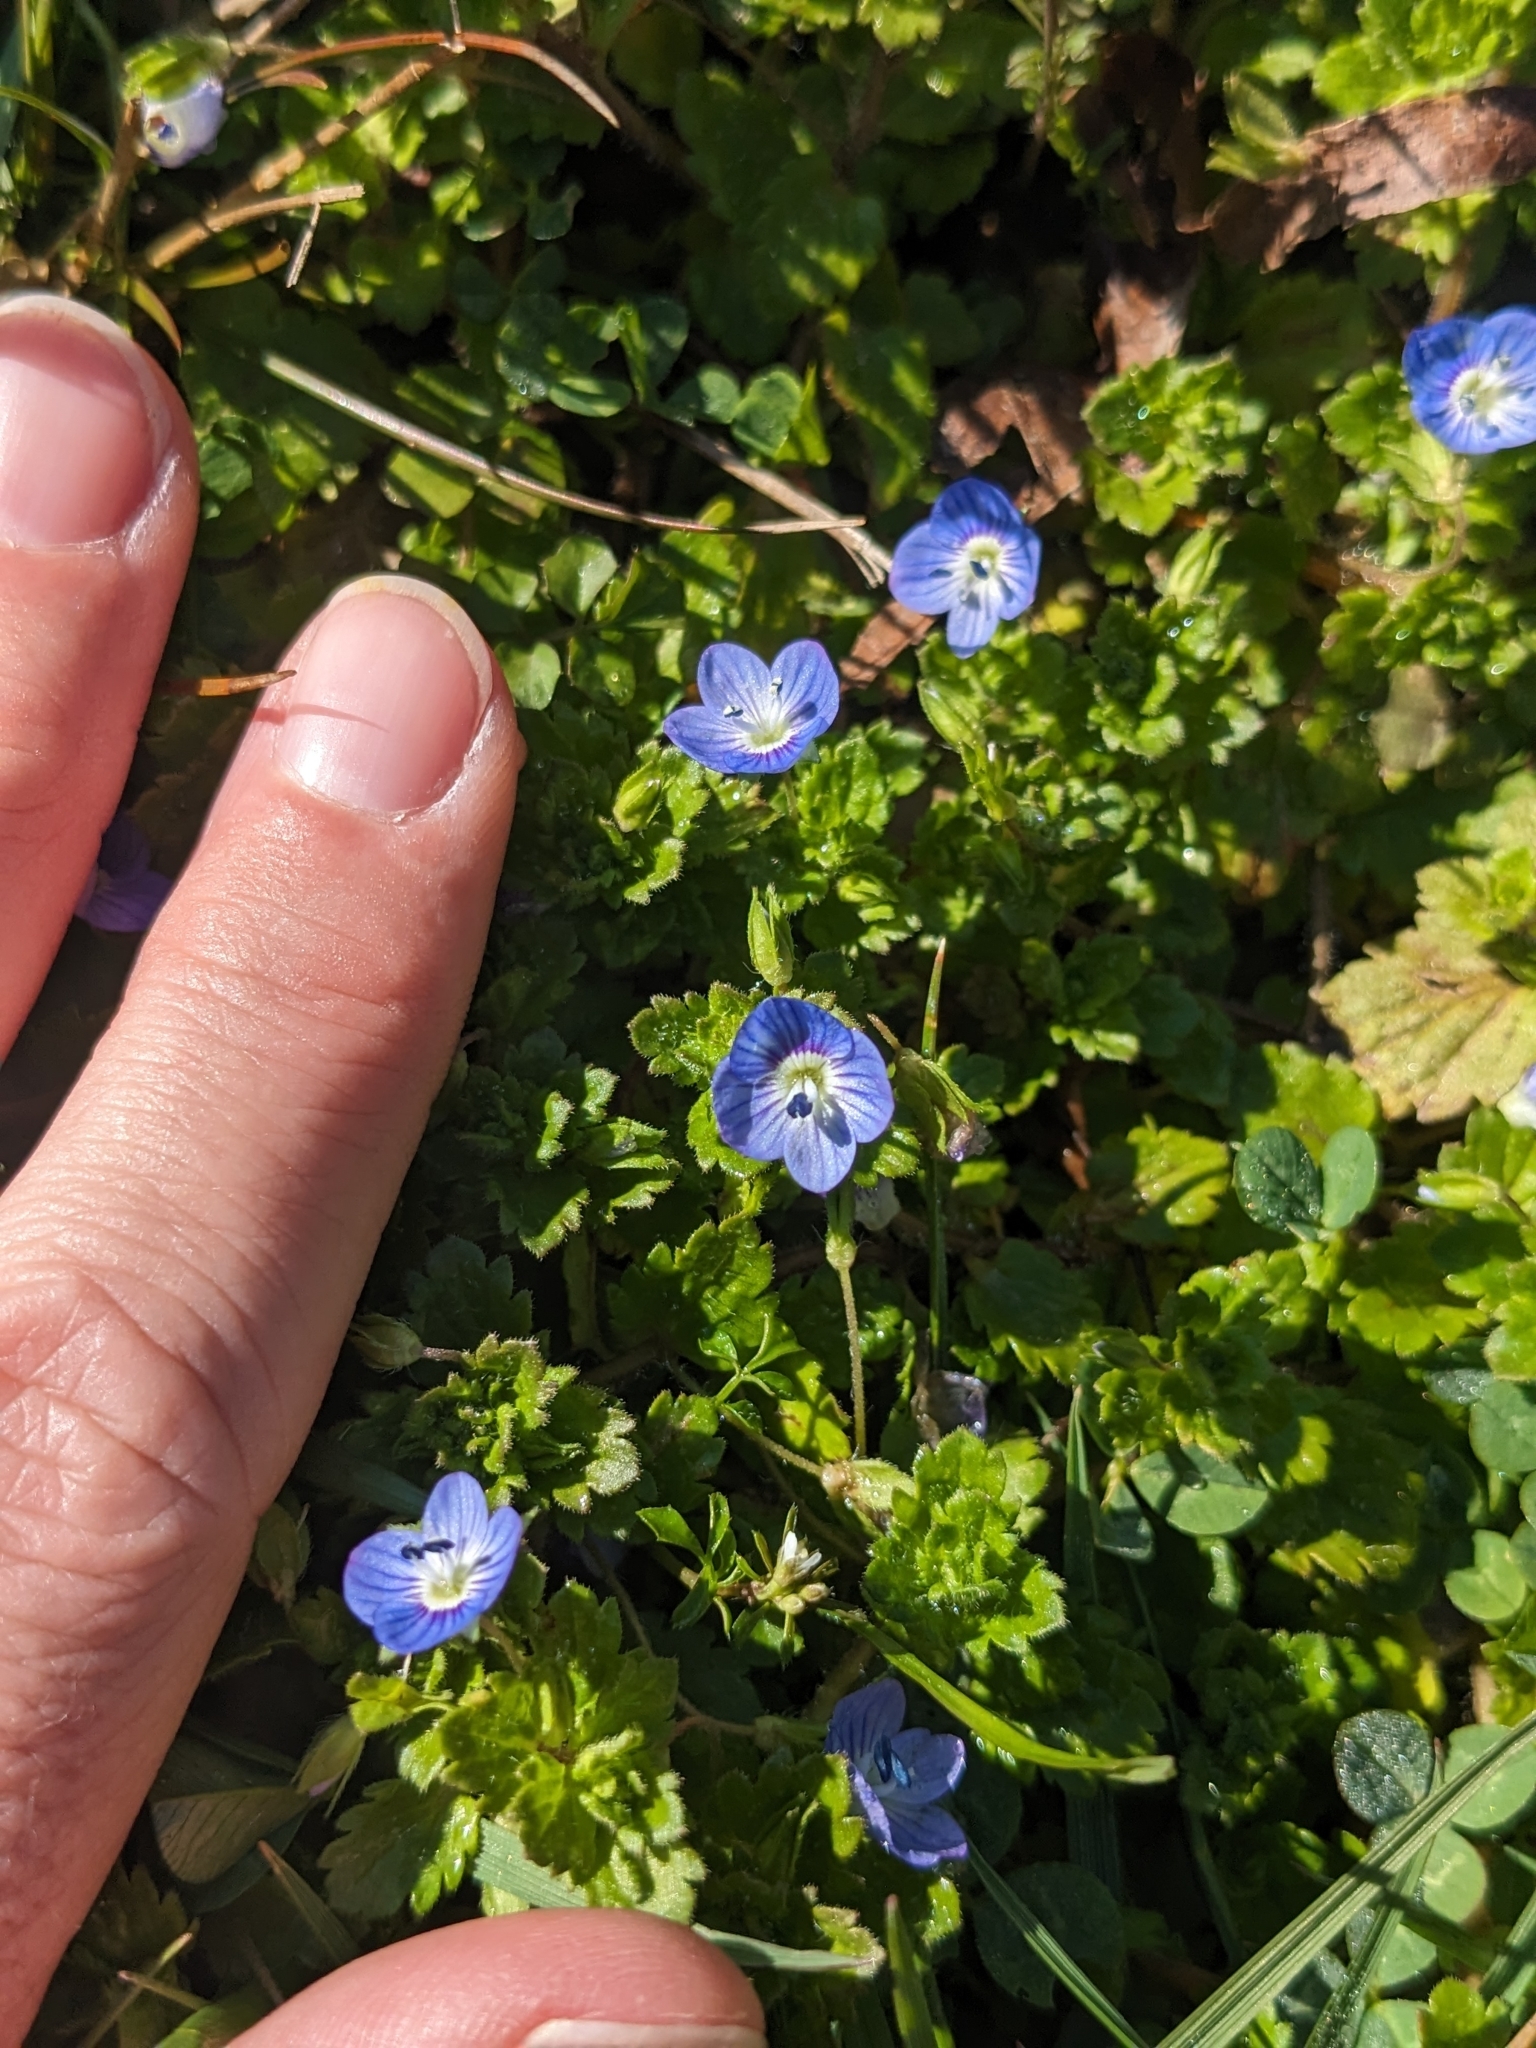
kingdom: Plantae
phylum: Tracheophyta
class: Magnoliopsida
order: Lamiales
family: Plantaginaceae
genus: Veronica
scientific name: Veronica persica
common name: Common field-speedwell
